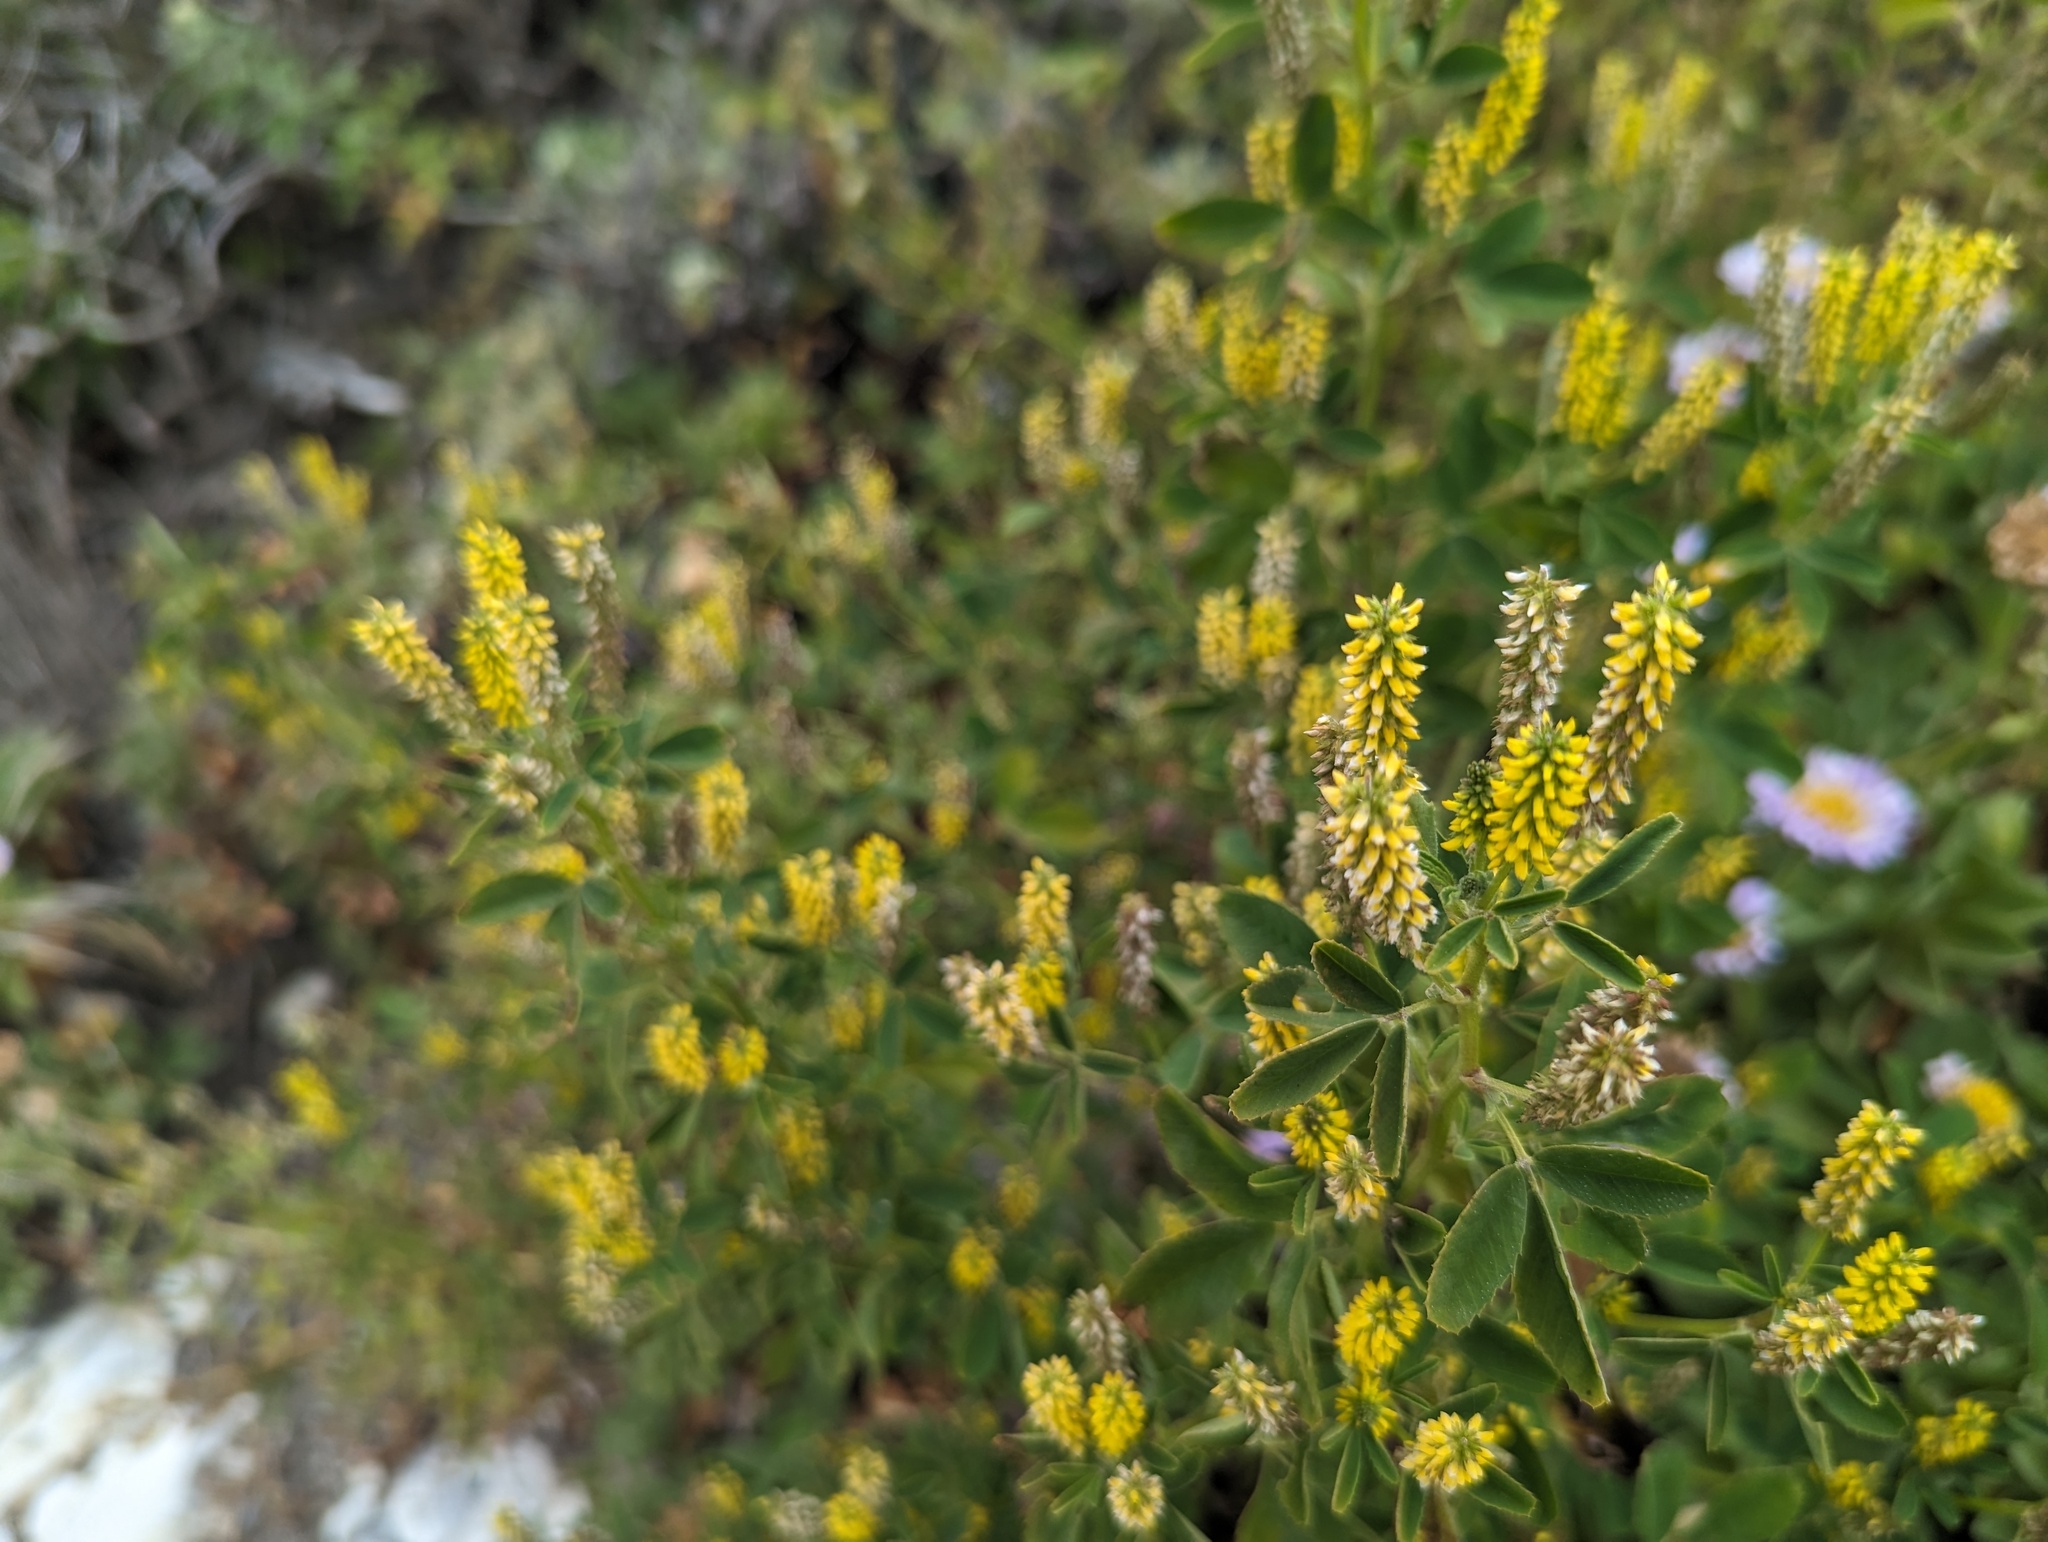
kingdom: Plantae
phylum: Tracheophyta
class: Magnoliopsida
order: Fabales
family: Fabaceae
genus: Melilotus
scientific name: Melilotus indicus
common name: Small melilot
